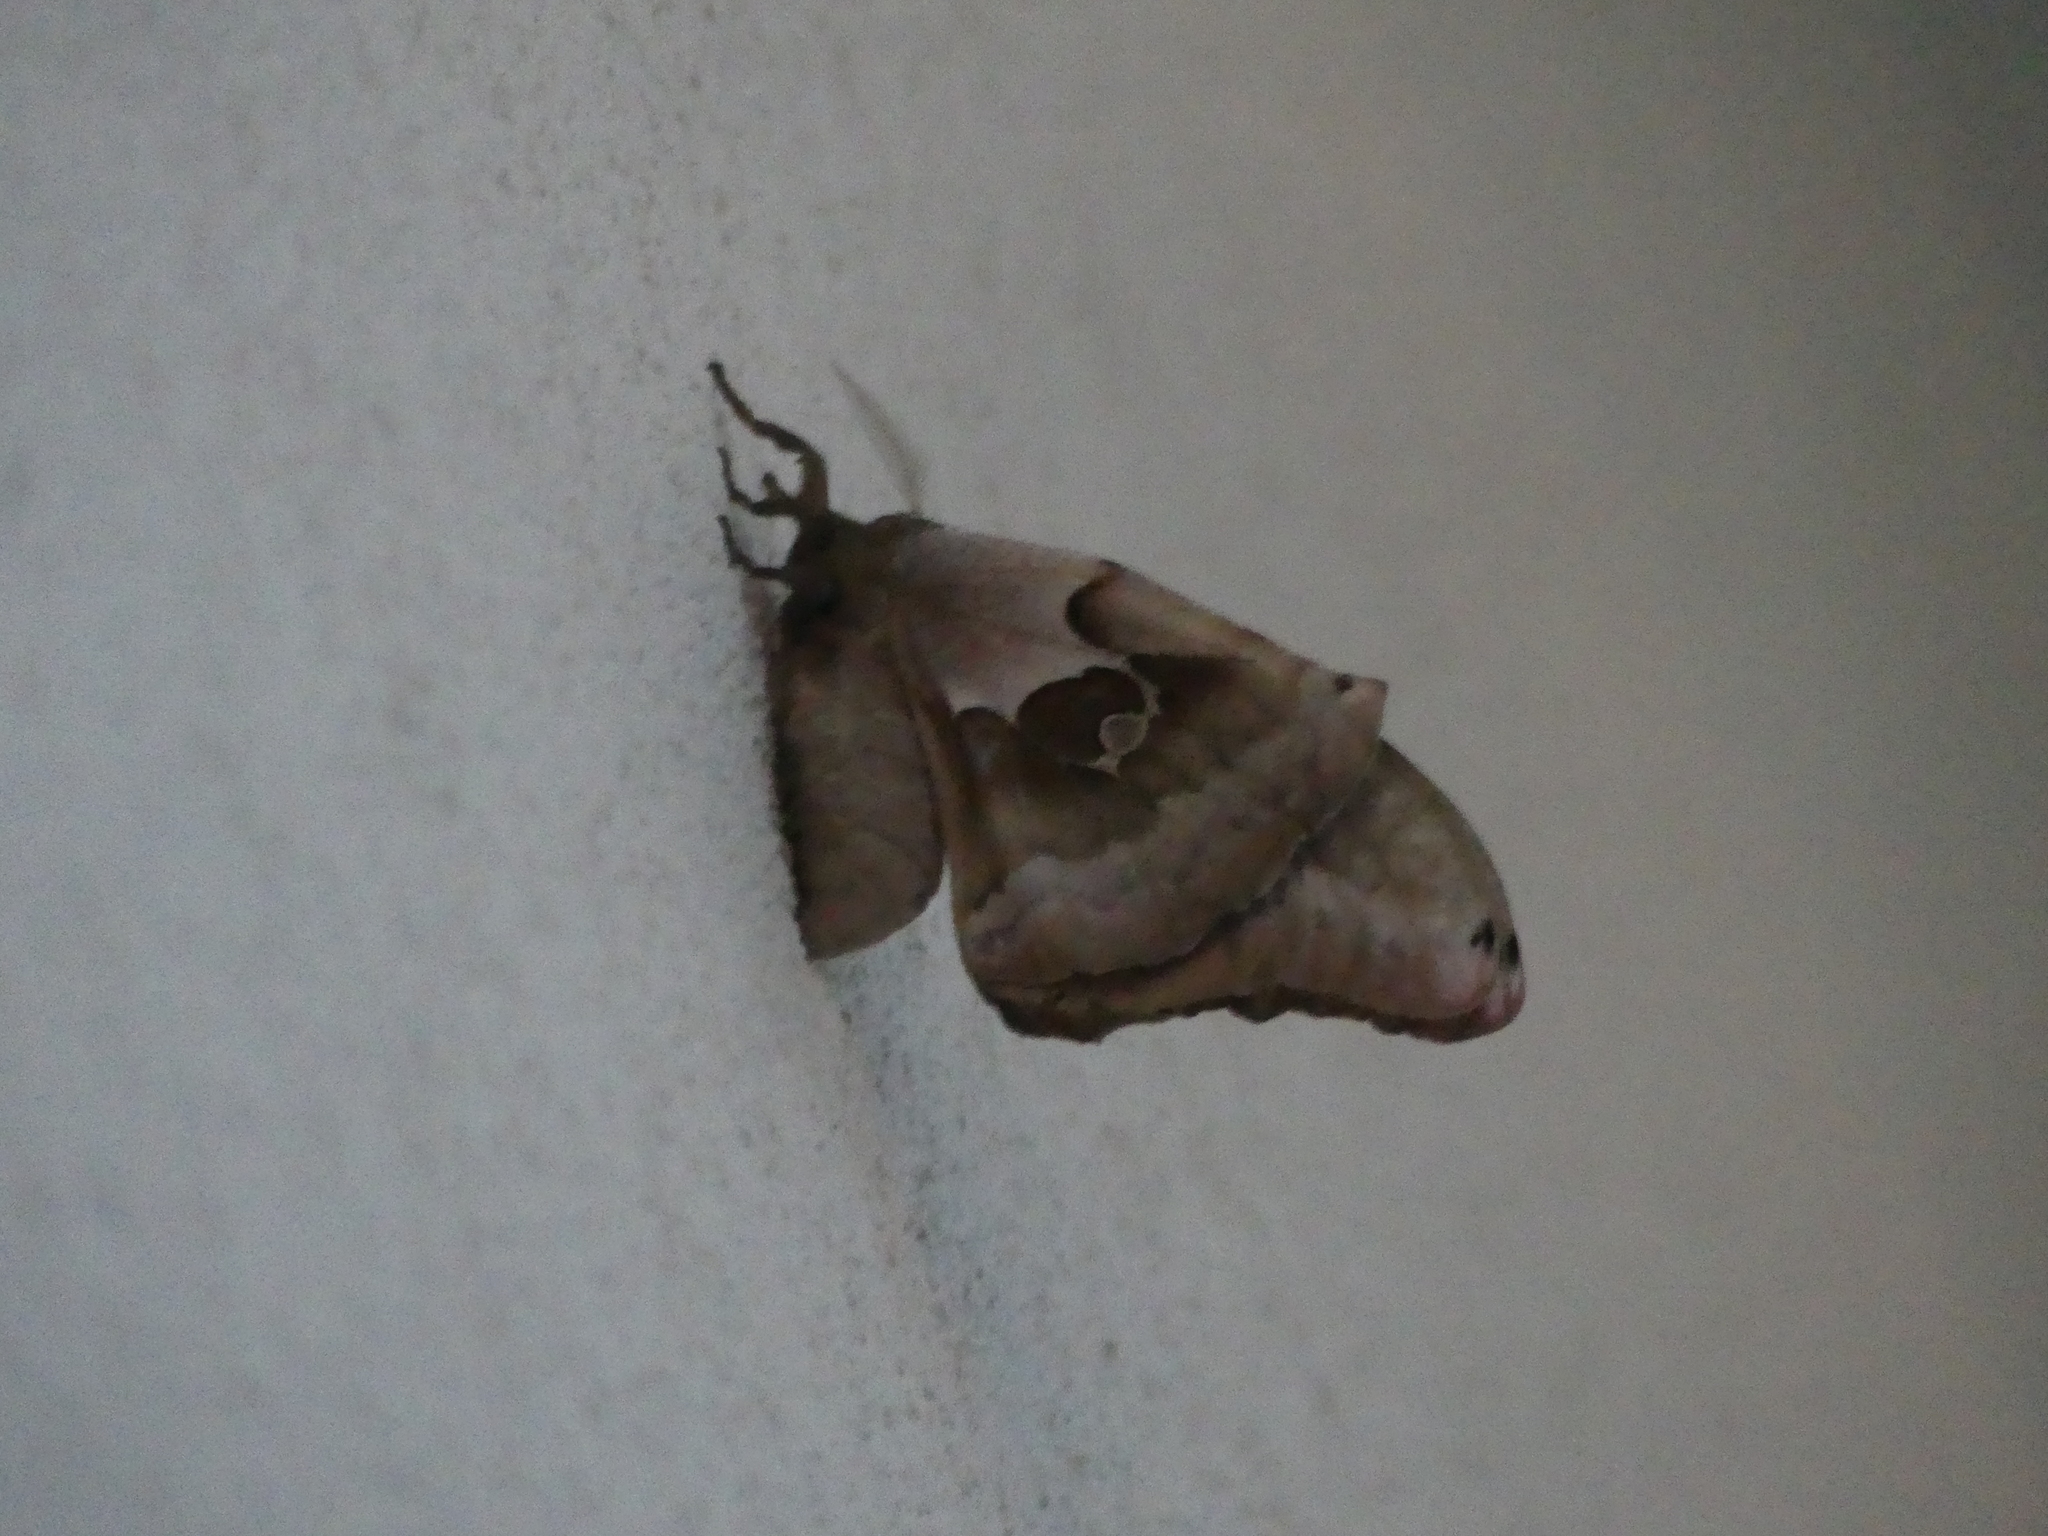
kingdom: Animalia
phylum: Arthropoda
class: Insecta
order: Lepidoptera
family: Saturniidae
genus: Antheraea
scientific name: Antheraea polyphemus
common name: Polyphemus moth
